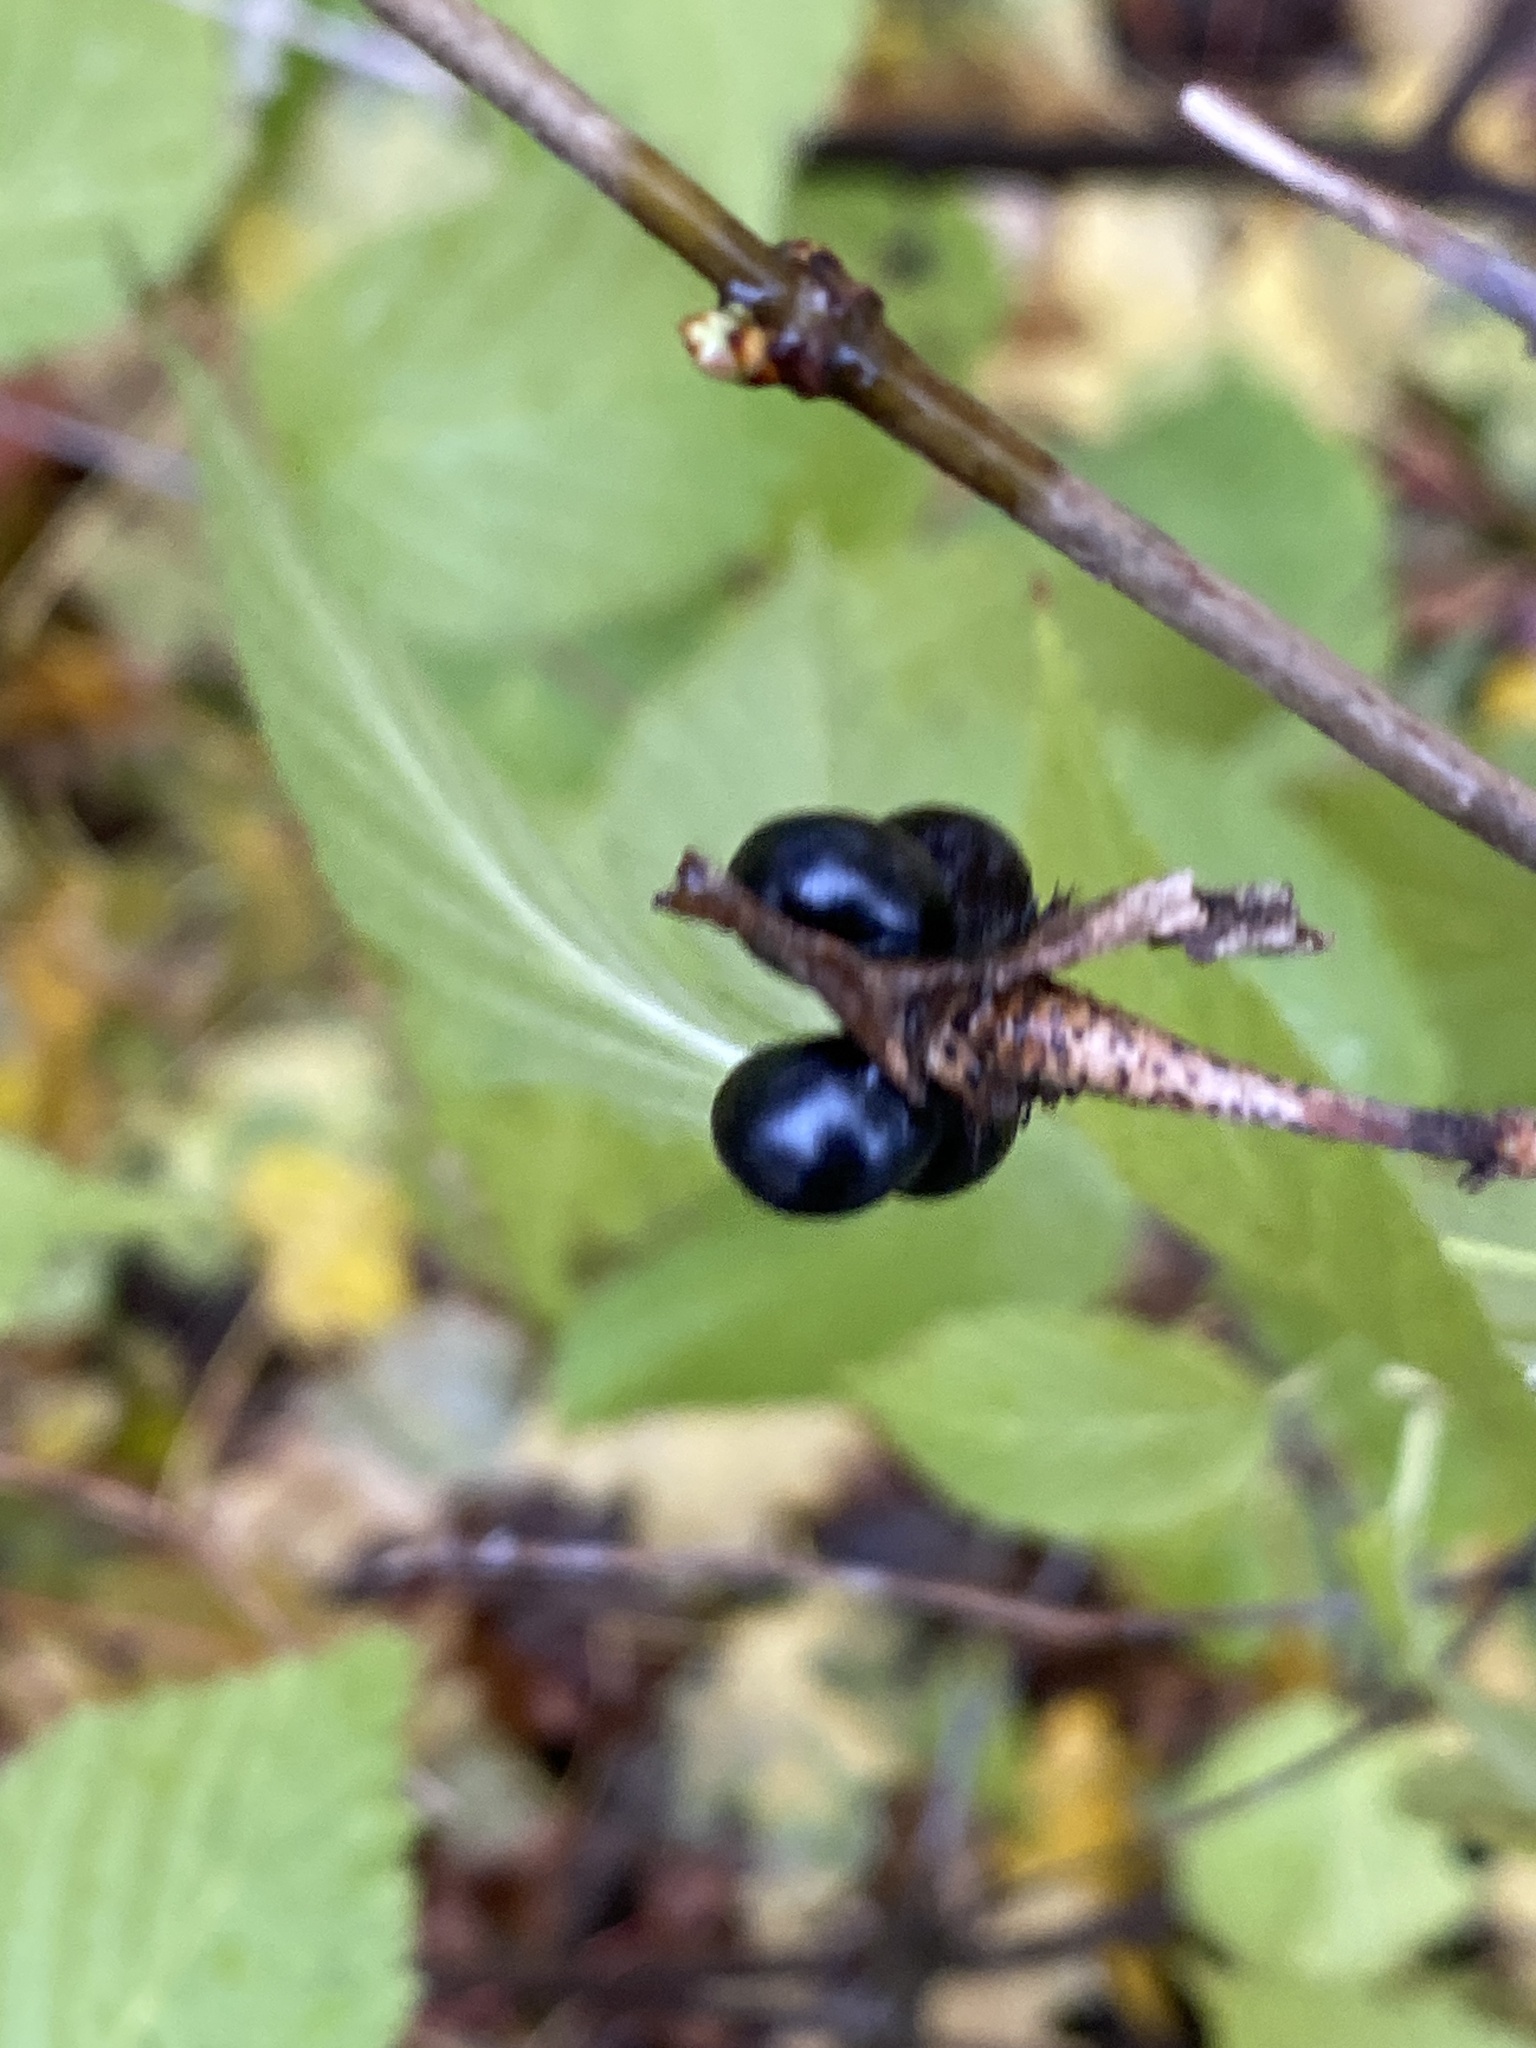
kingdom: Plantae
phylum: Tracheophyta
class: Magnoliopsida
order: Rosales
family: Rosaceae
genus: Rhodotypos
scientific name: Rhodotypos scandens
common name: Jetbead
